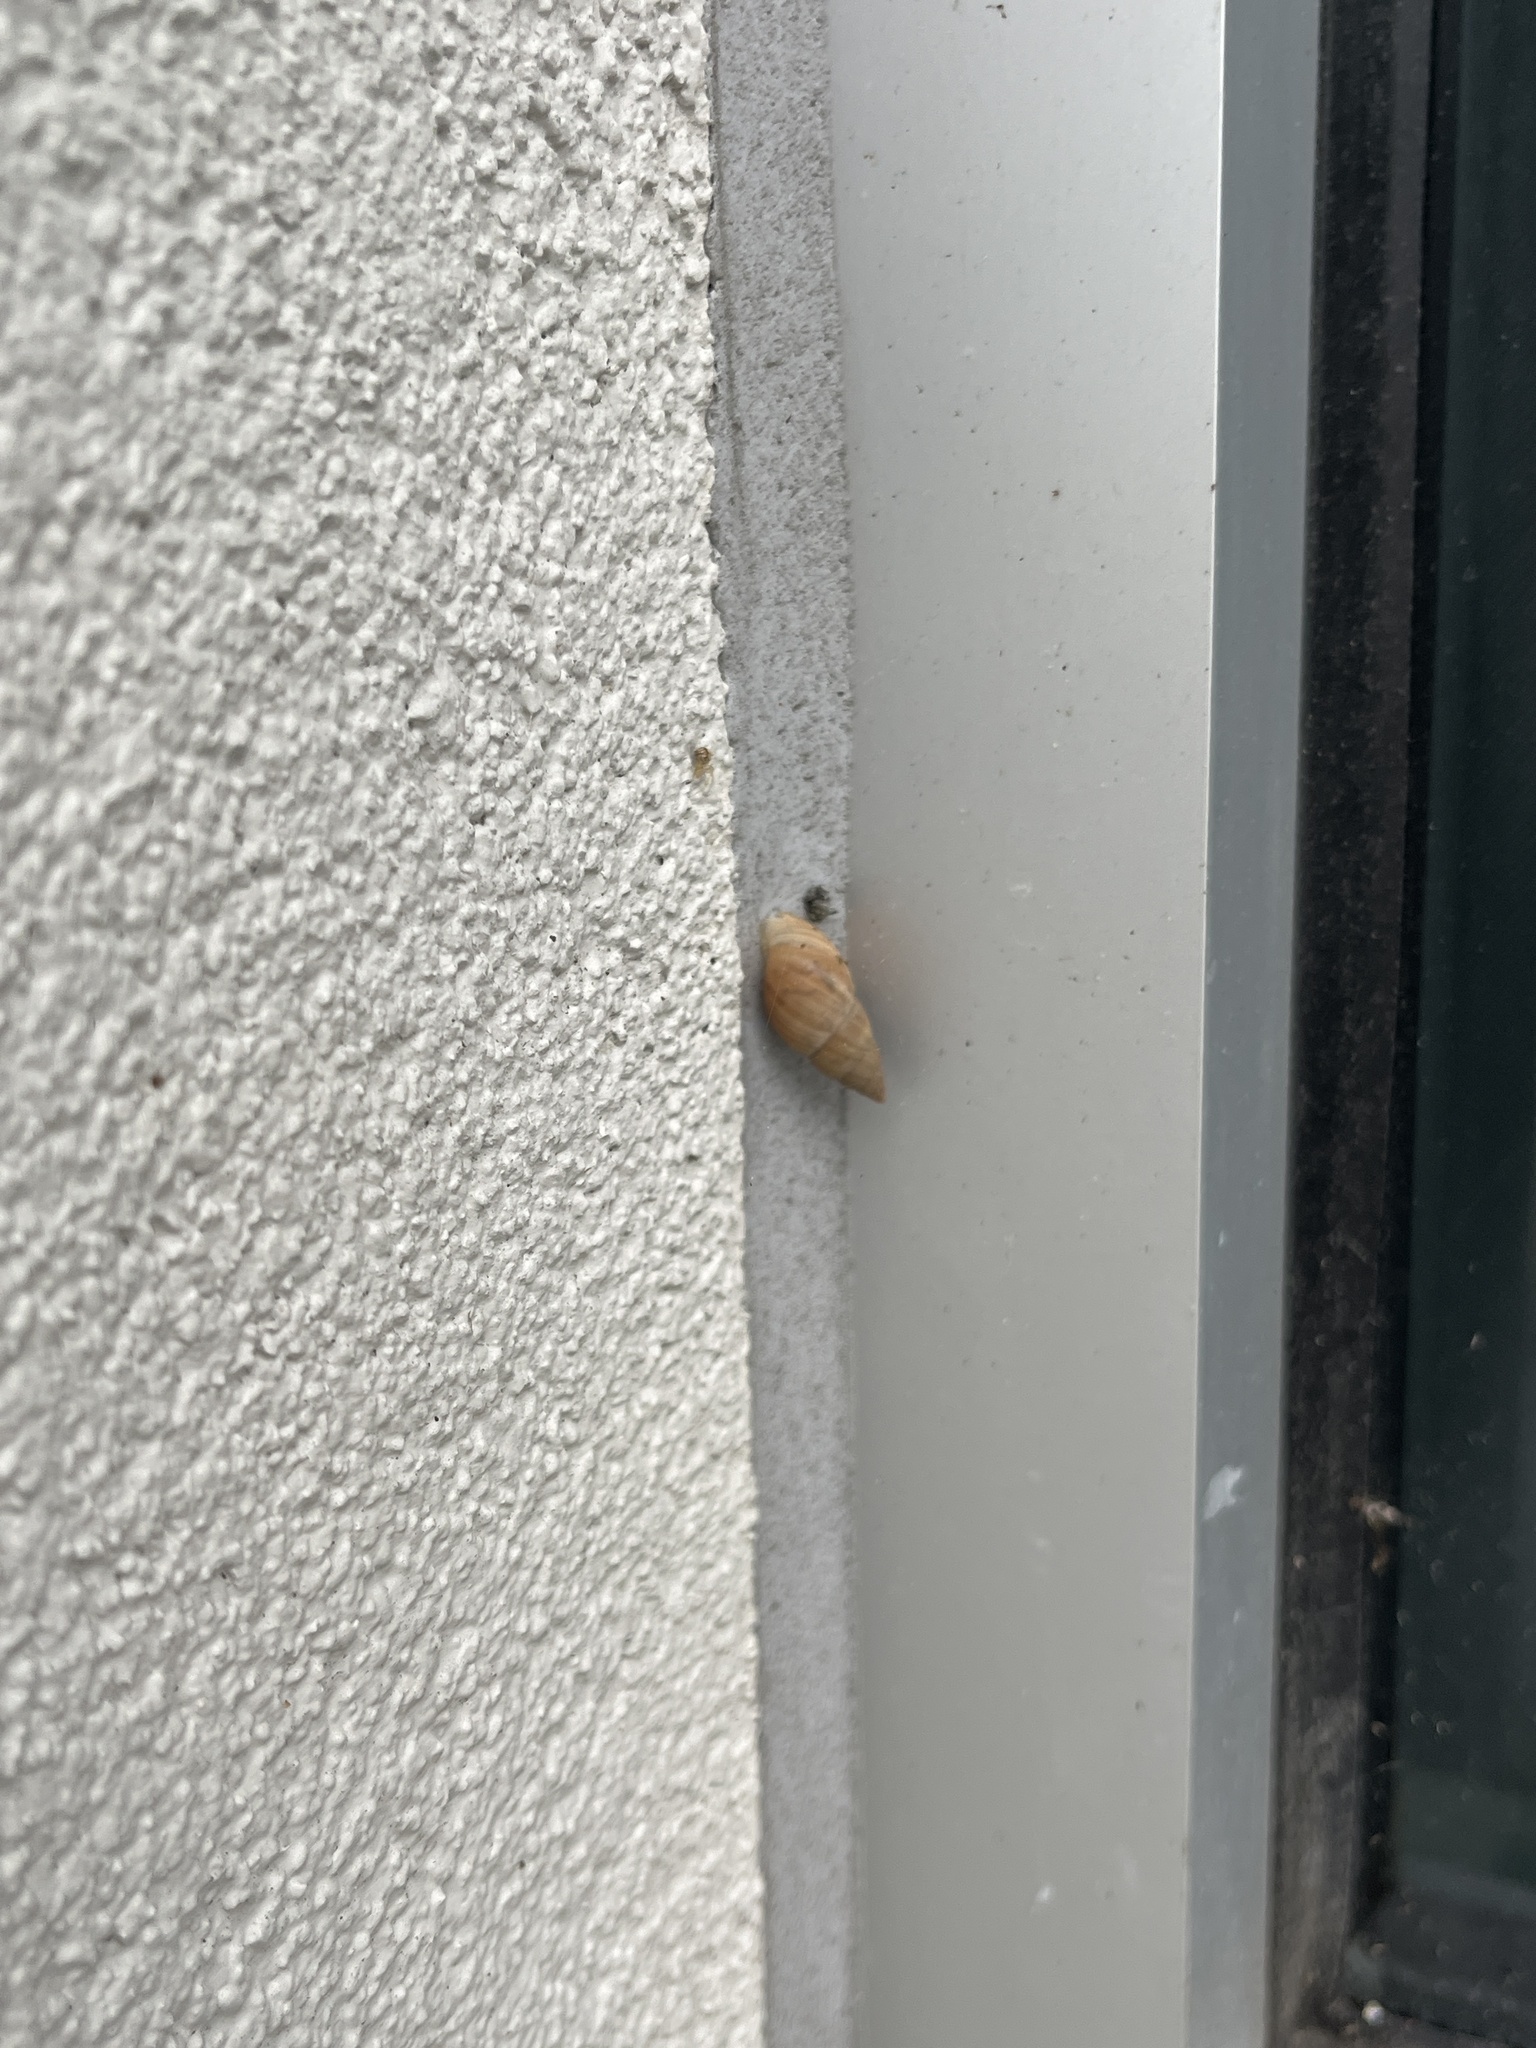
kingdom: Animalia
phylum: Mollusca
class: Gastropoda
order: Stylommatophora
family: Bulimulidae
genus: Bulimulus
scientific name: Bulimulus bonariensis
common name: Snail
